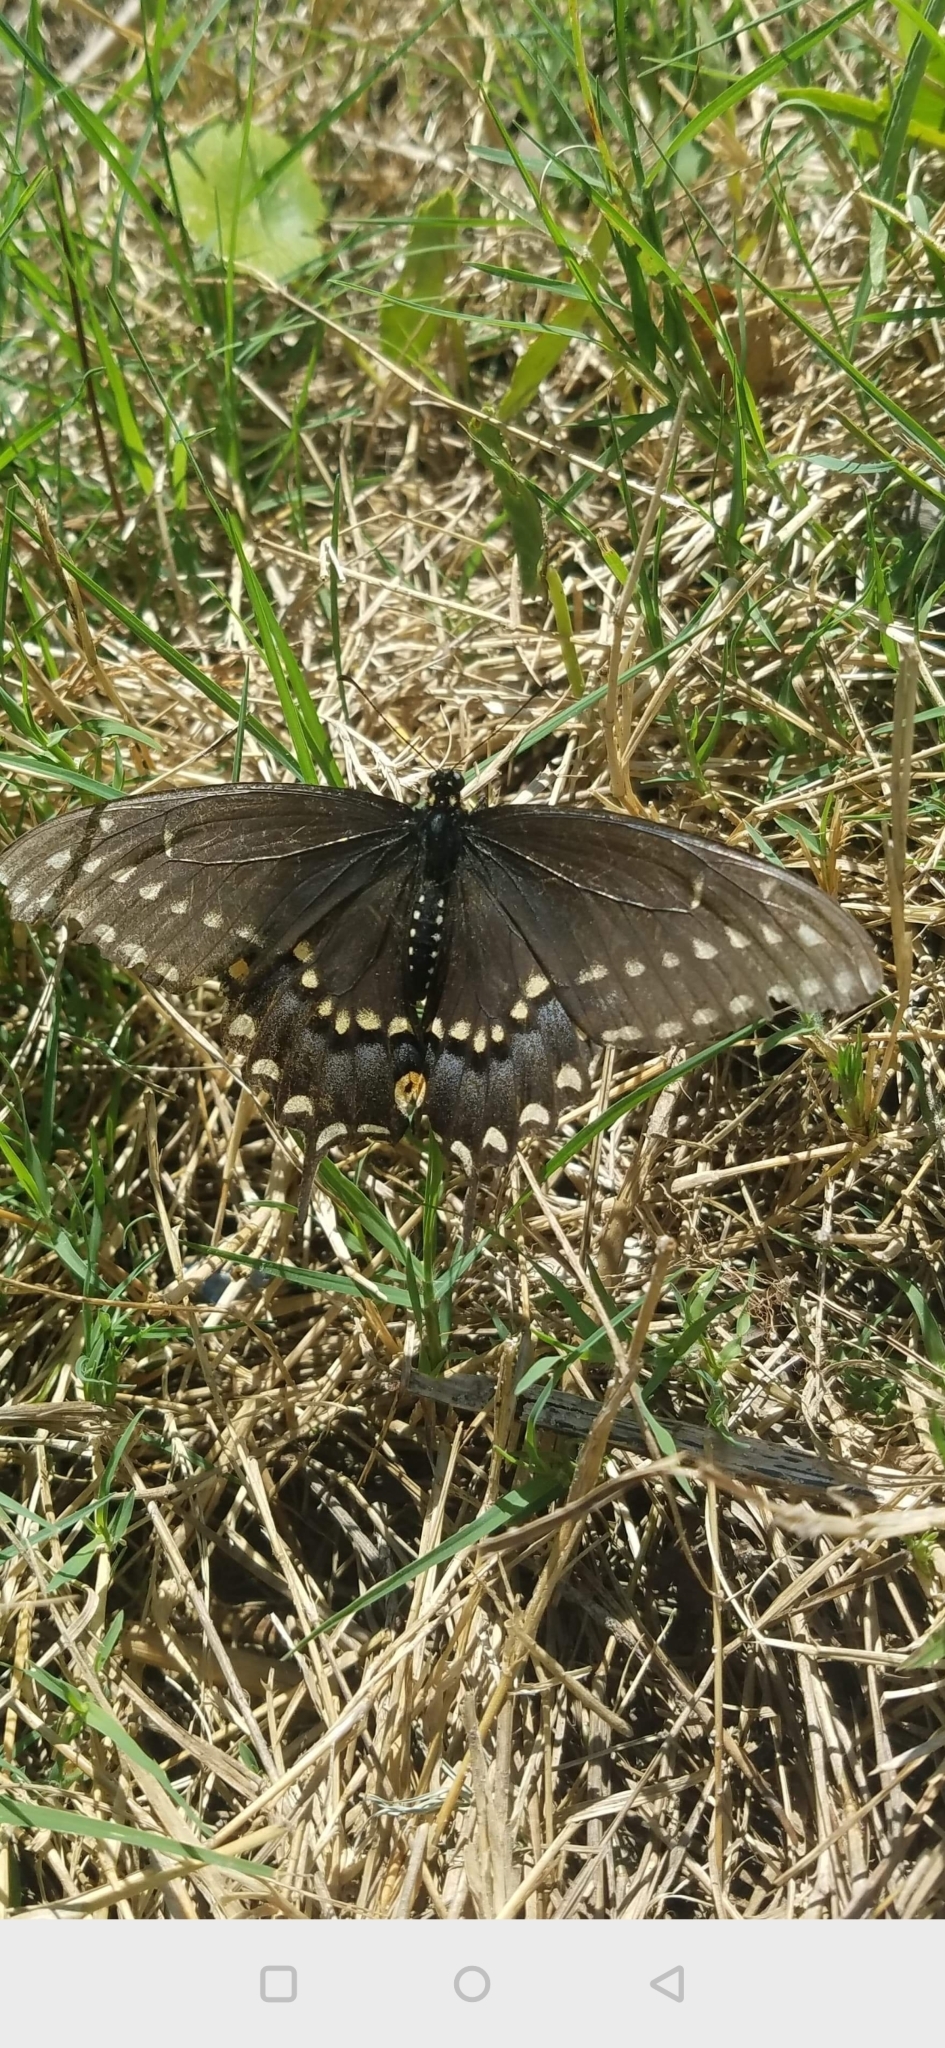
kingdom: Animalia
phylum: Arthropoda
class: Insecta
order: Lepidoptera
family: Papilionidae
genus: Papilio
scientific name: Papilio polyxenes
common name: Black swallowtail
